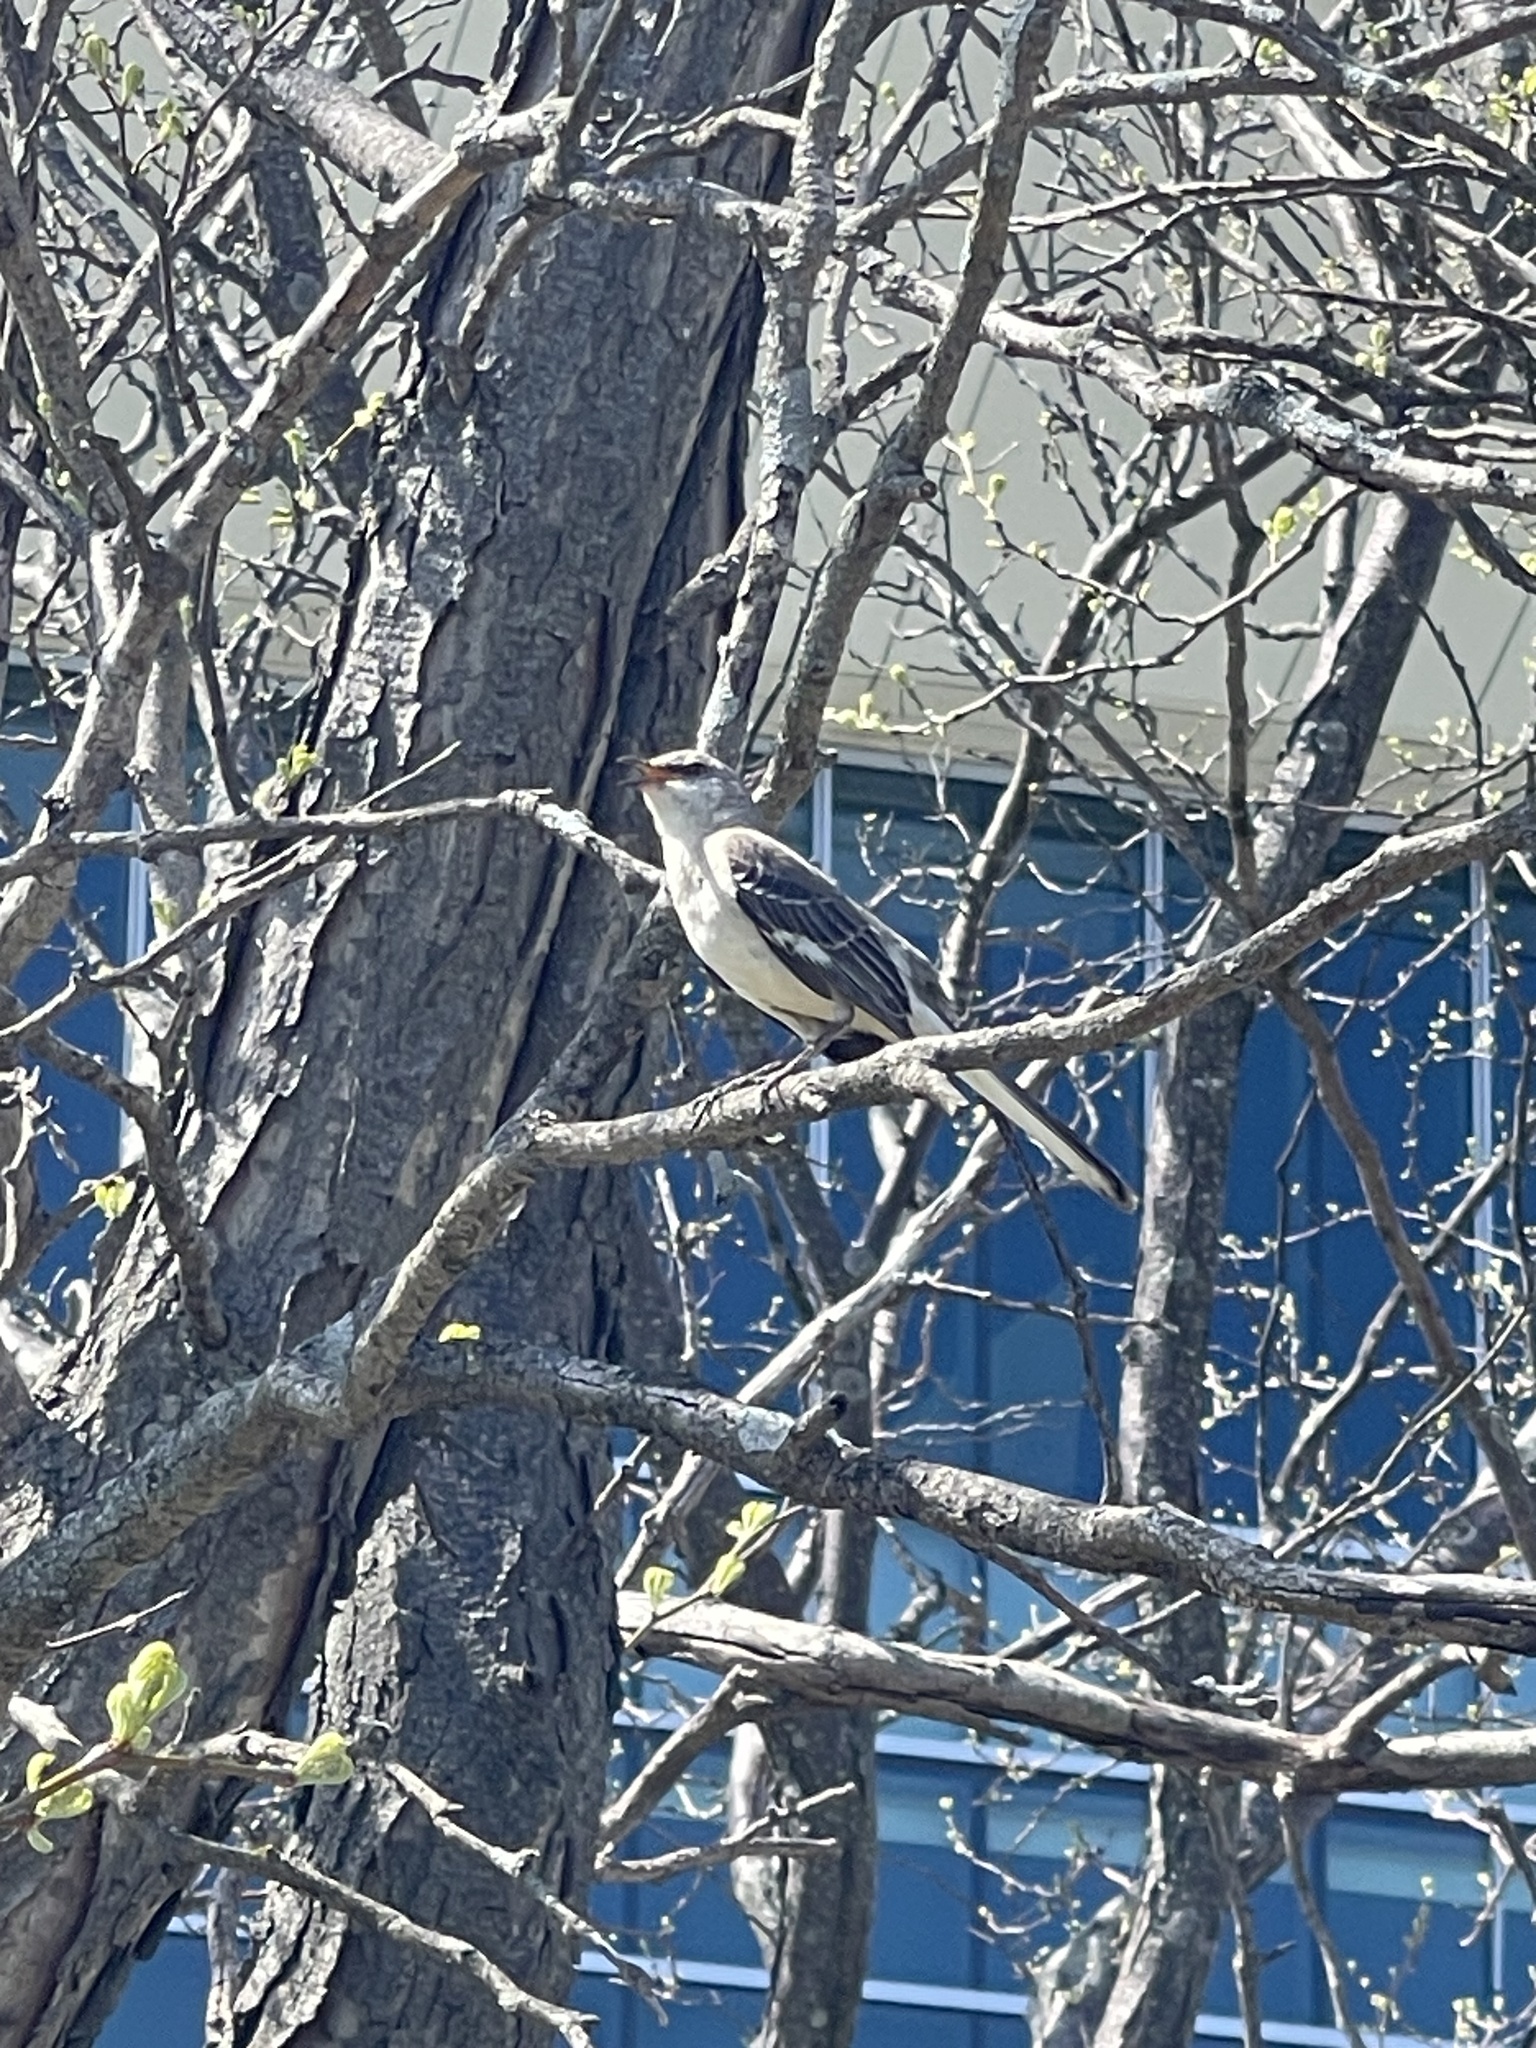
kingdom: Animalia
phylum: Chordata
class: Aves
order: Passeriformes
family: Mimidae
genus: Mimus
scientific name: Mimus polyglottos
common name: Northern mockingbird
